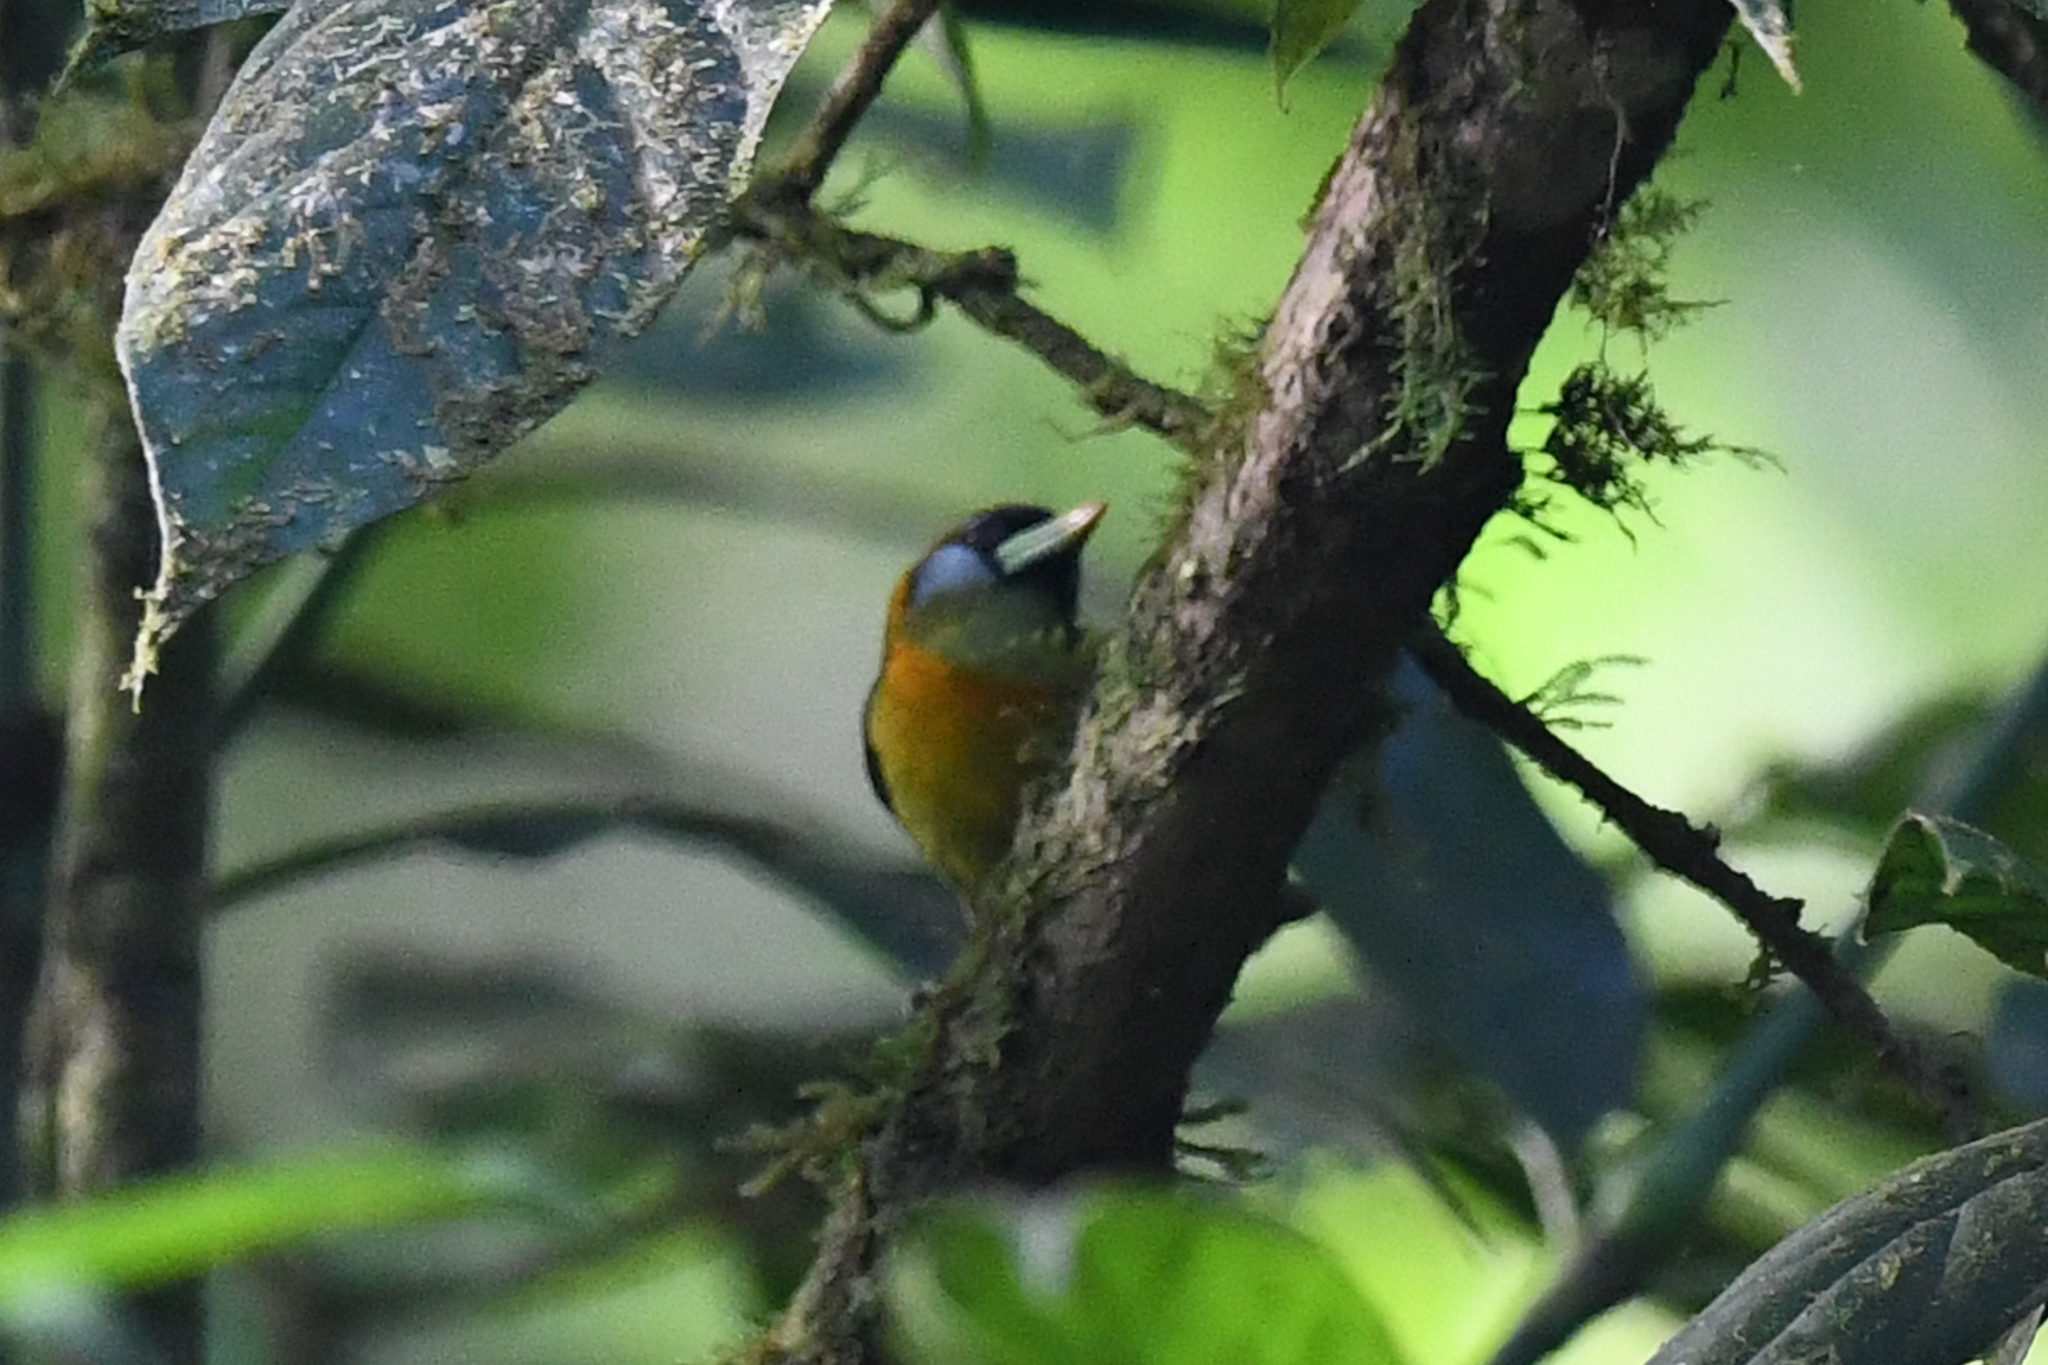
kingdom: Animalia
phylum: Chordata
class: Aves
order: Piciformes
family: Capitonidae
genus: Eubucco
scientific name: Eubucco bourcierii
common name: Red-headed barbet
